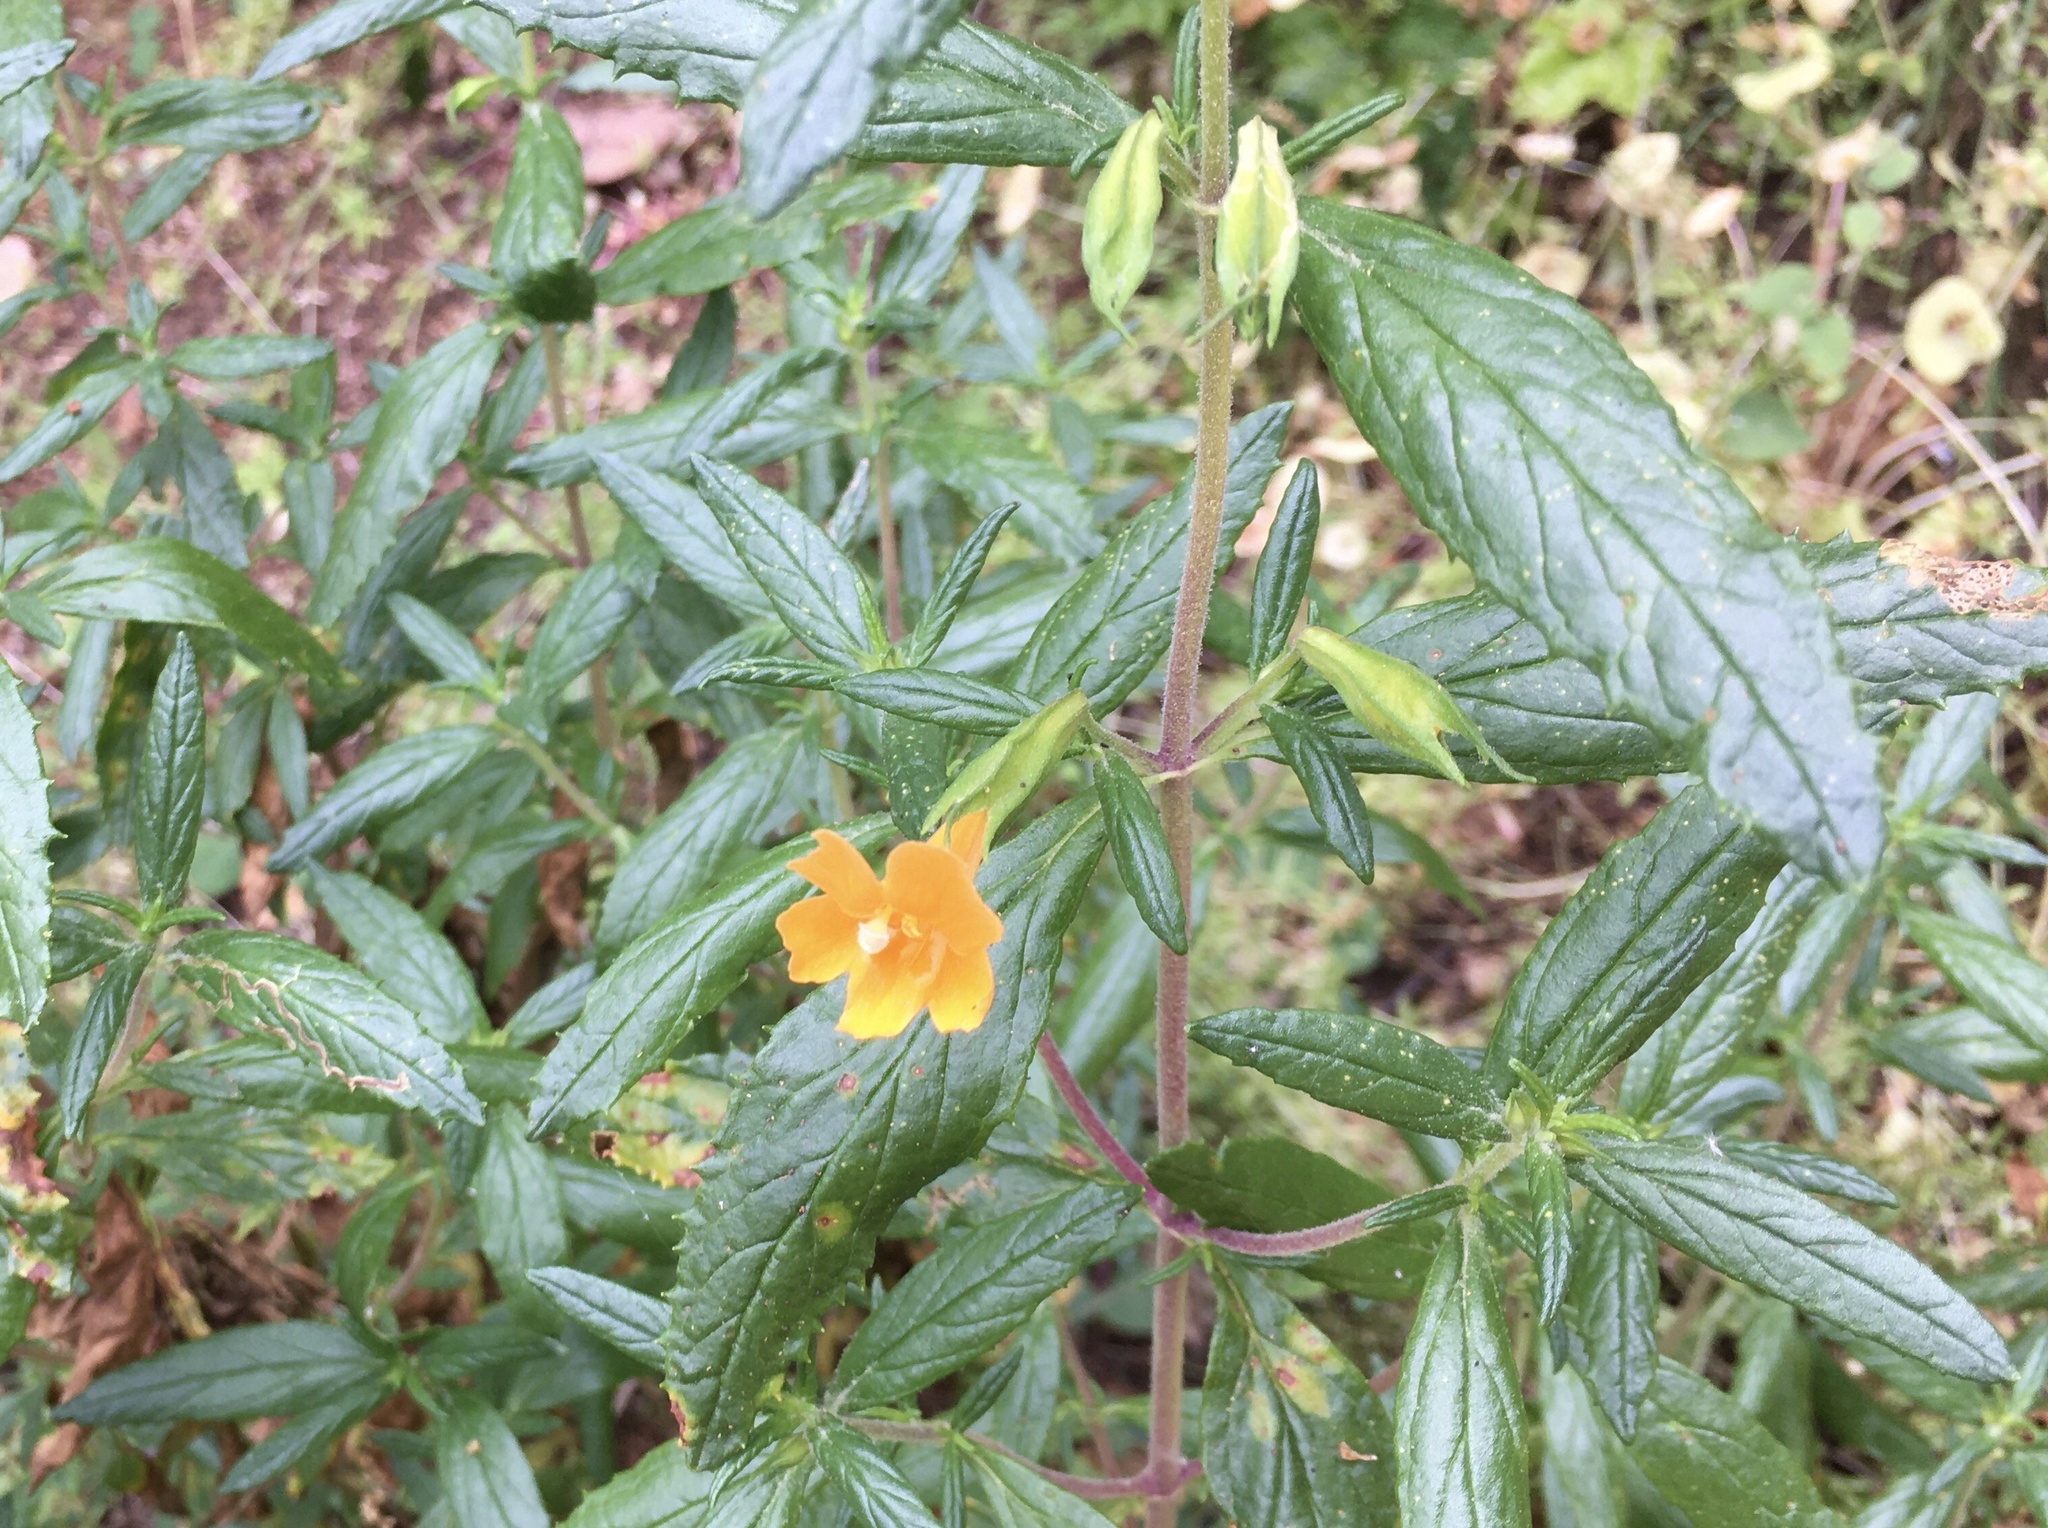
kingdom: Plantae
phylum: Tracheophyta
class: Magnoliopsida
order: Lamiales
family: Phrymaceae
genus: Diplacus
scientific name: Diplacus aurantiacus
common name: Bush monkey-flower
